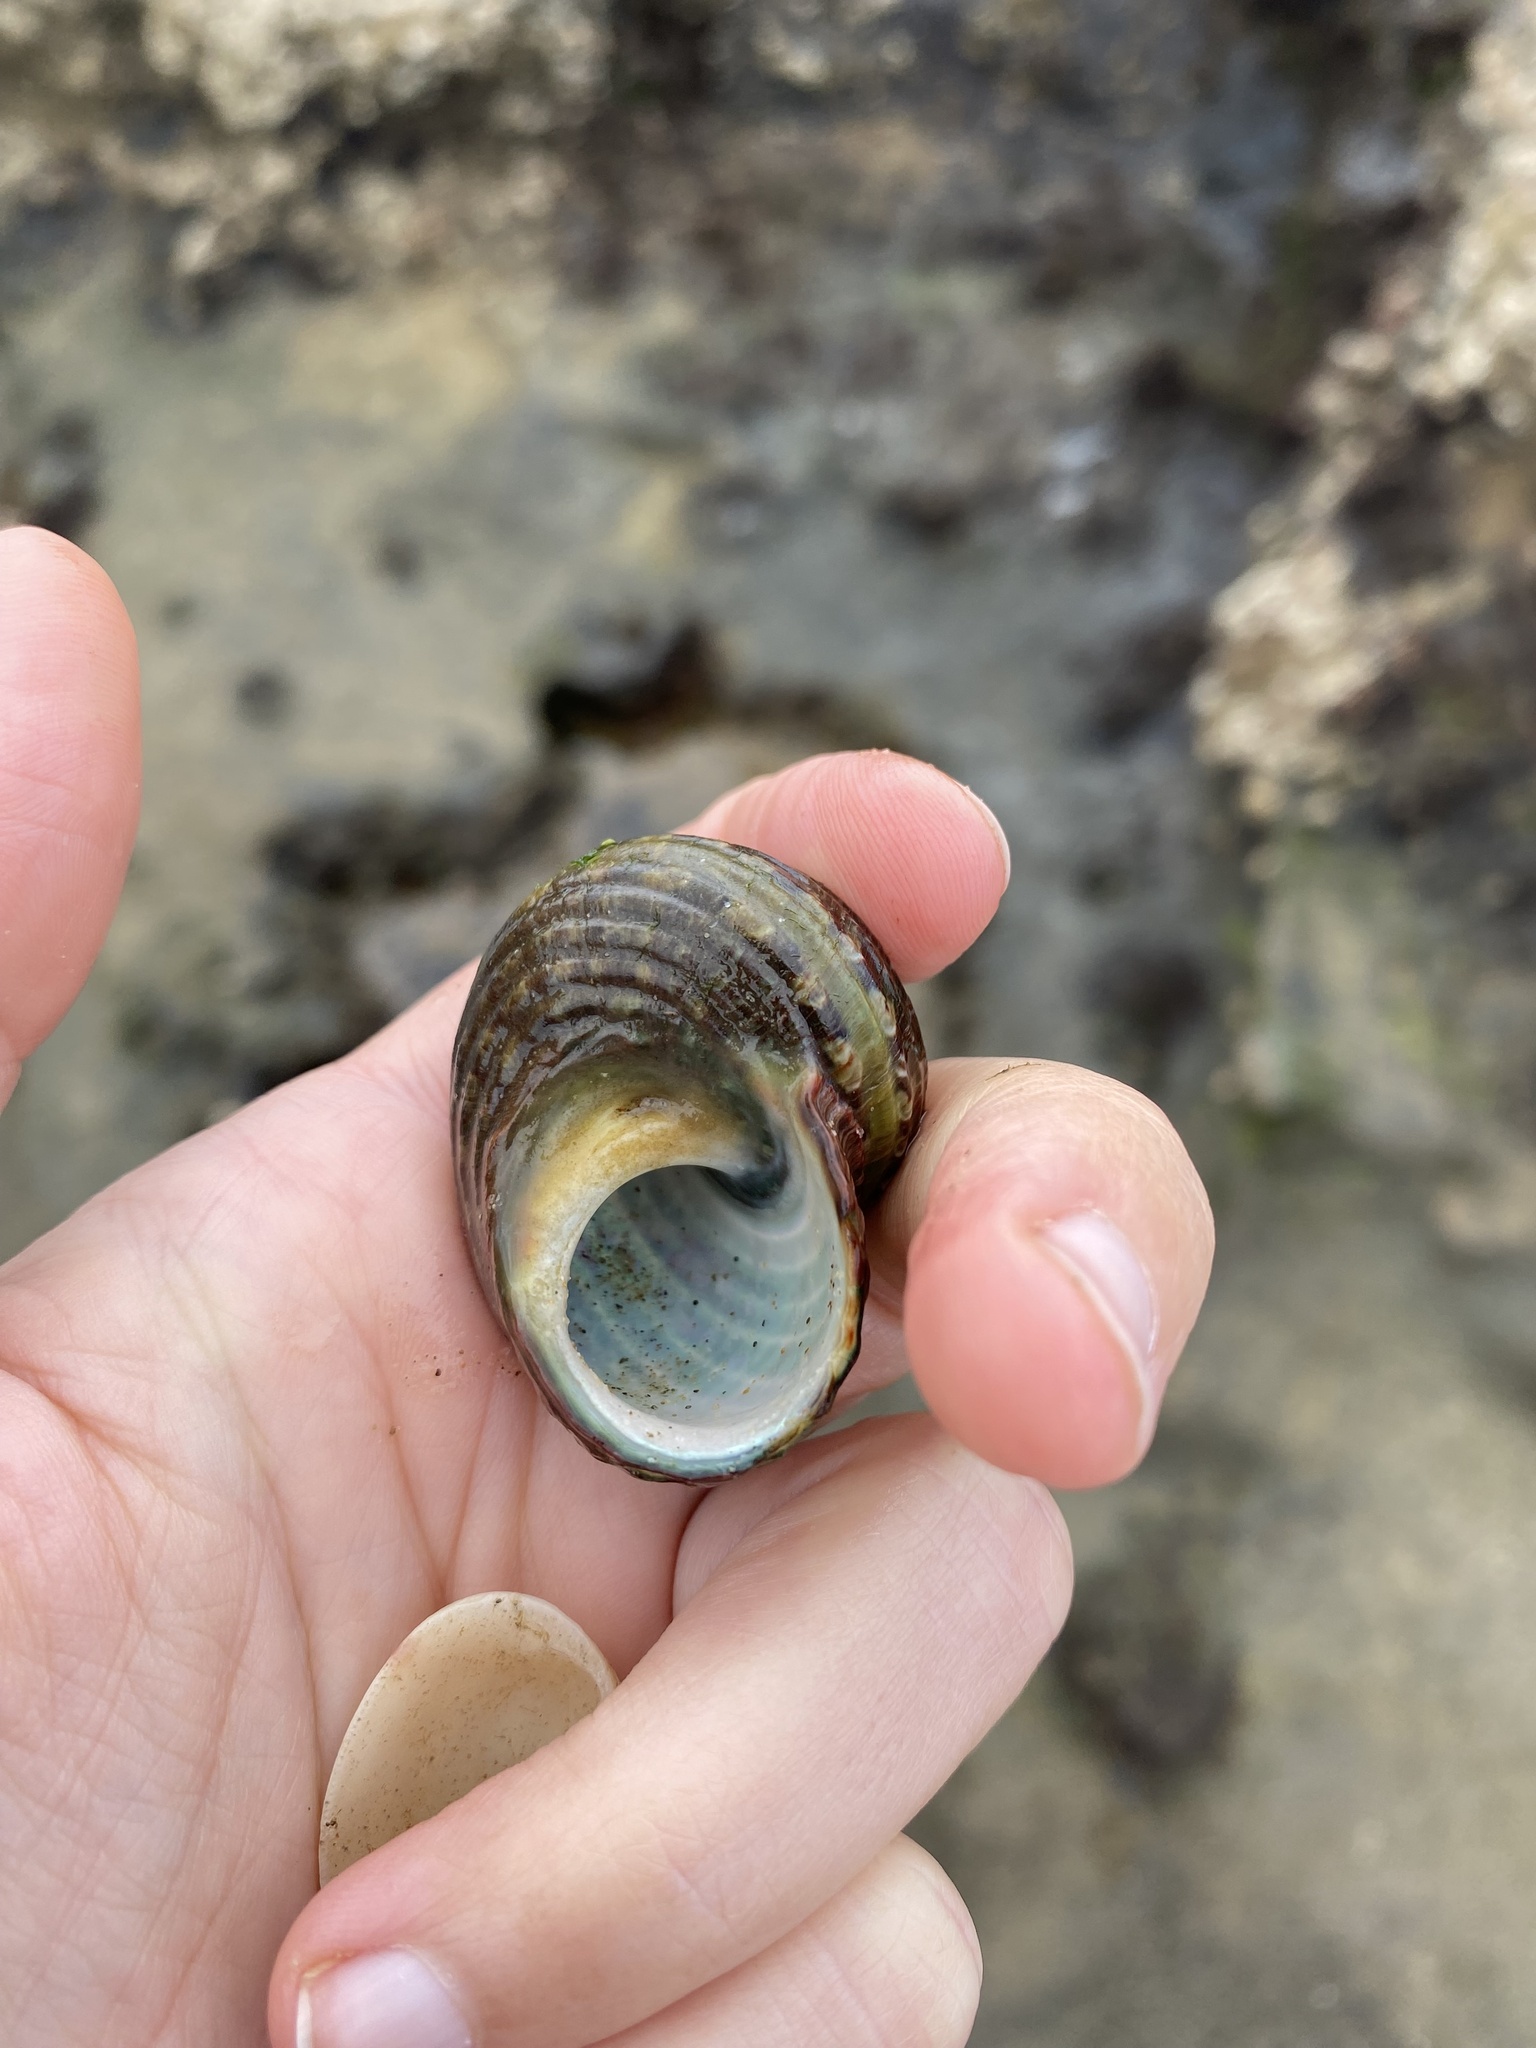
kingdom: Animalia
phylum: Mollusca
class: Gastropoda
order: Trochida
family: Turbinidae
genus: Turbo
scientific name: Turbo cidaris
